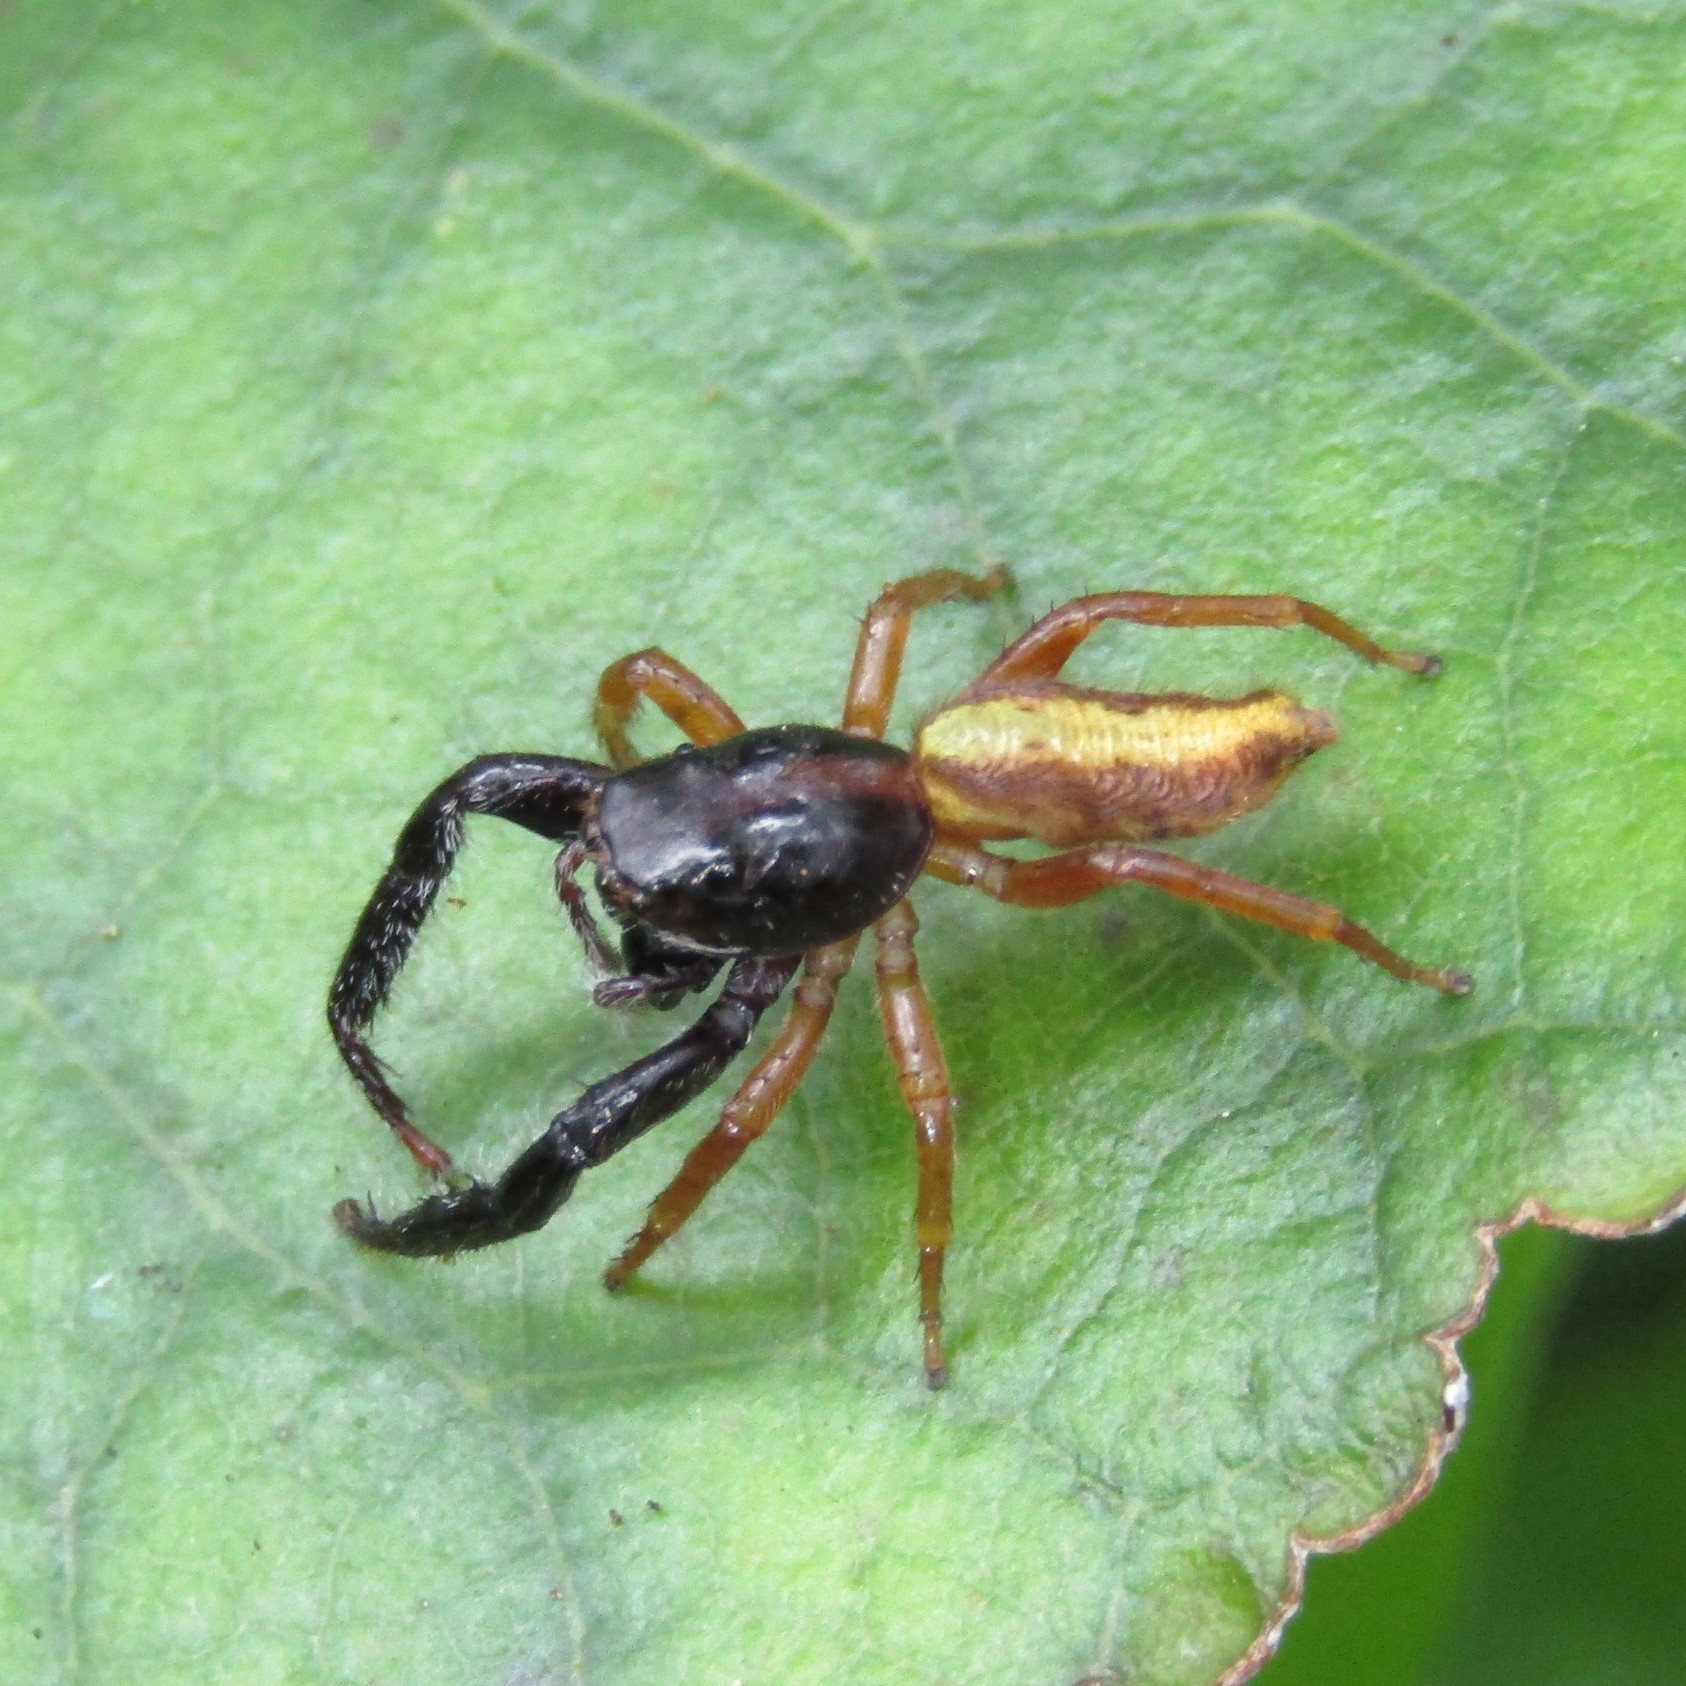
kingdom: Animalia
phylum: Arthropoda
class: Arachnida
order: Araneae
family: Salticidae
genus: Trite
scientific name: Trite planiceps
